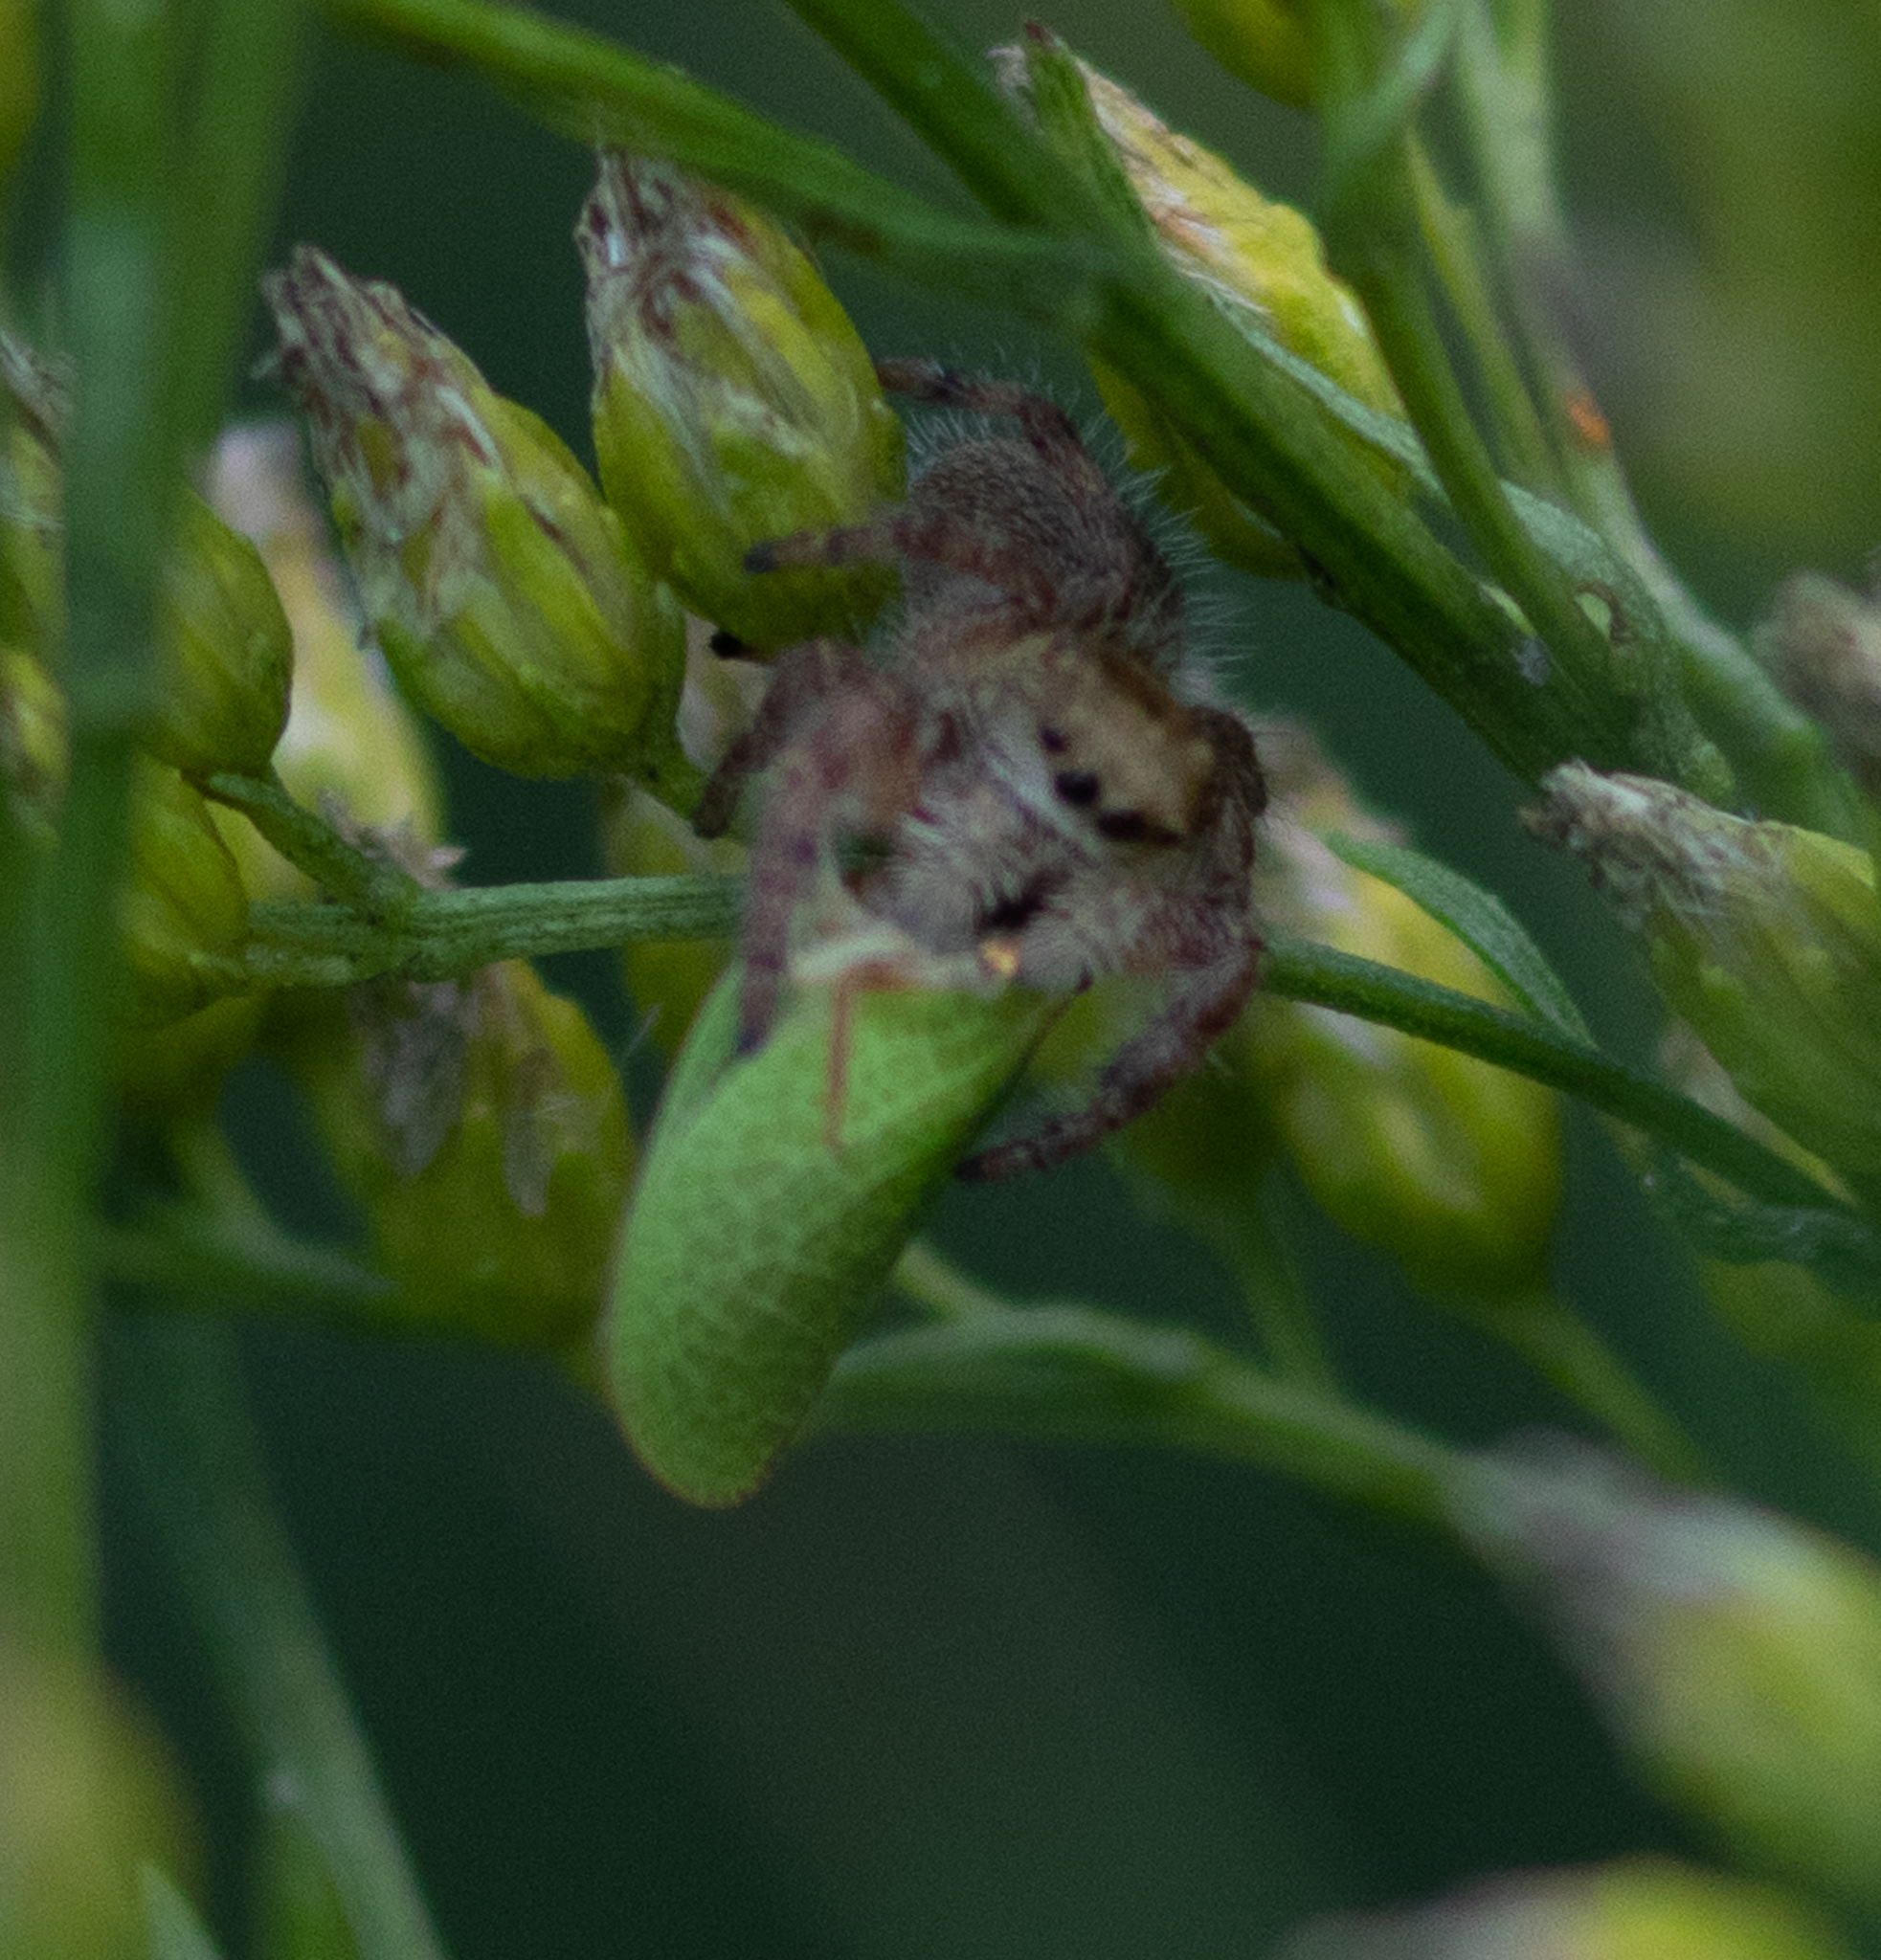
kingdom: Animalia
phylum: Arthropoda
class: Arachnida
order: Araneae
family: Salticidae
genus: Phidippus
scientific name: Phidippus princeps
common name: Grayish jumping spider
